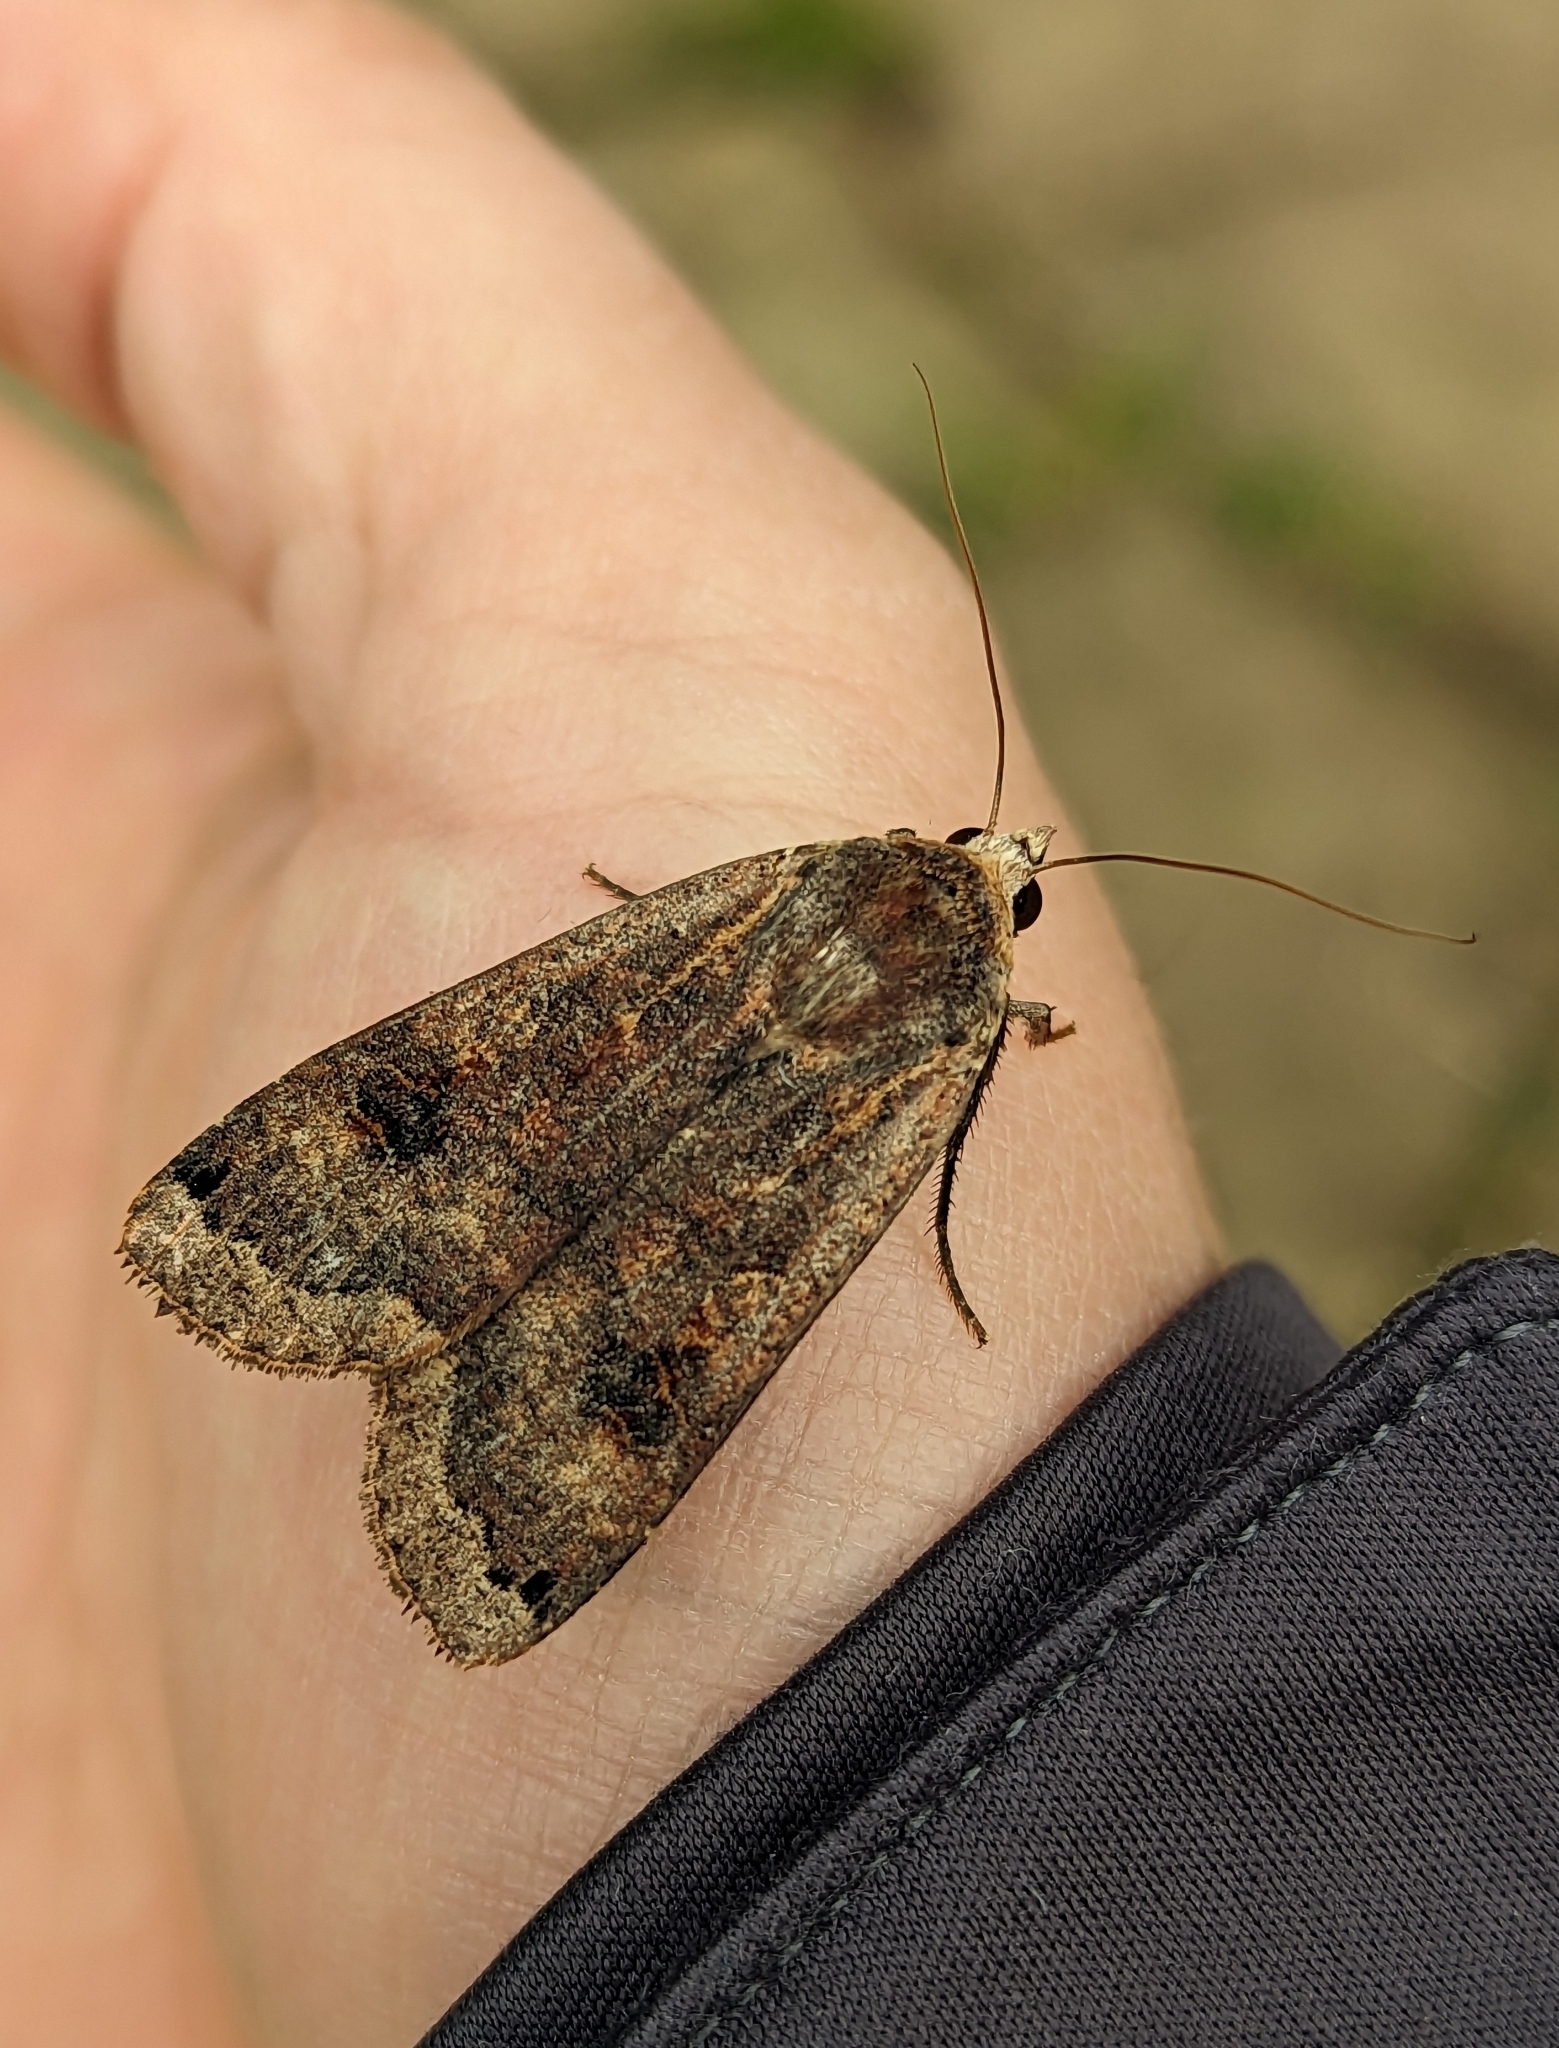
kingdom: Animalia
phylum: Arthropoda
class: Insecta
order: Lepidoptera
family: Noctuidae
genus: Noctua
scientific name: Noctua pronuba
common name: Large yellow underwing
